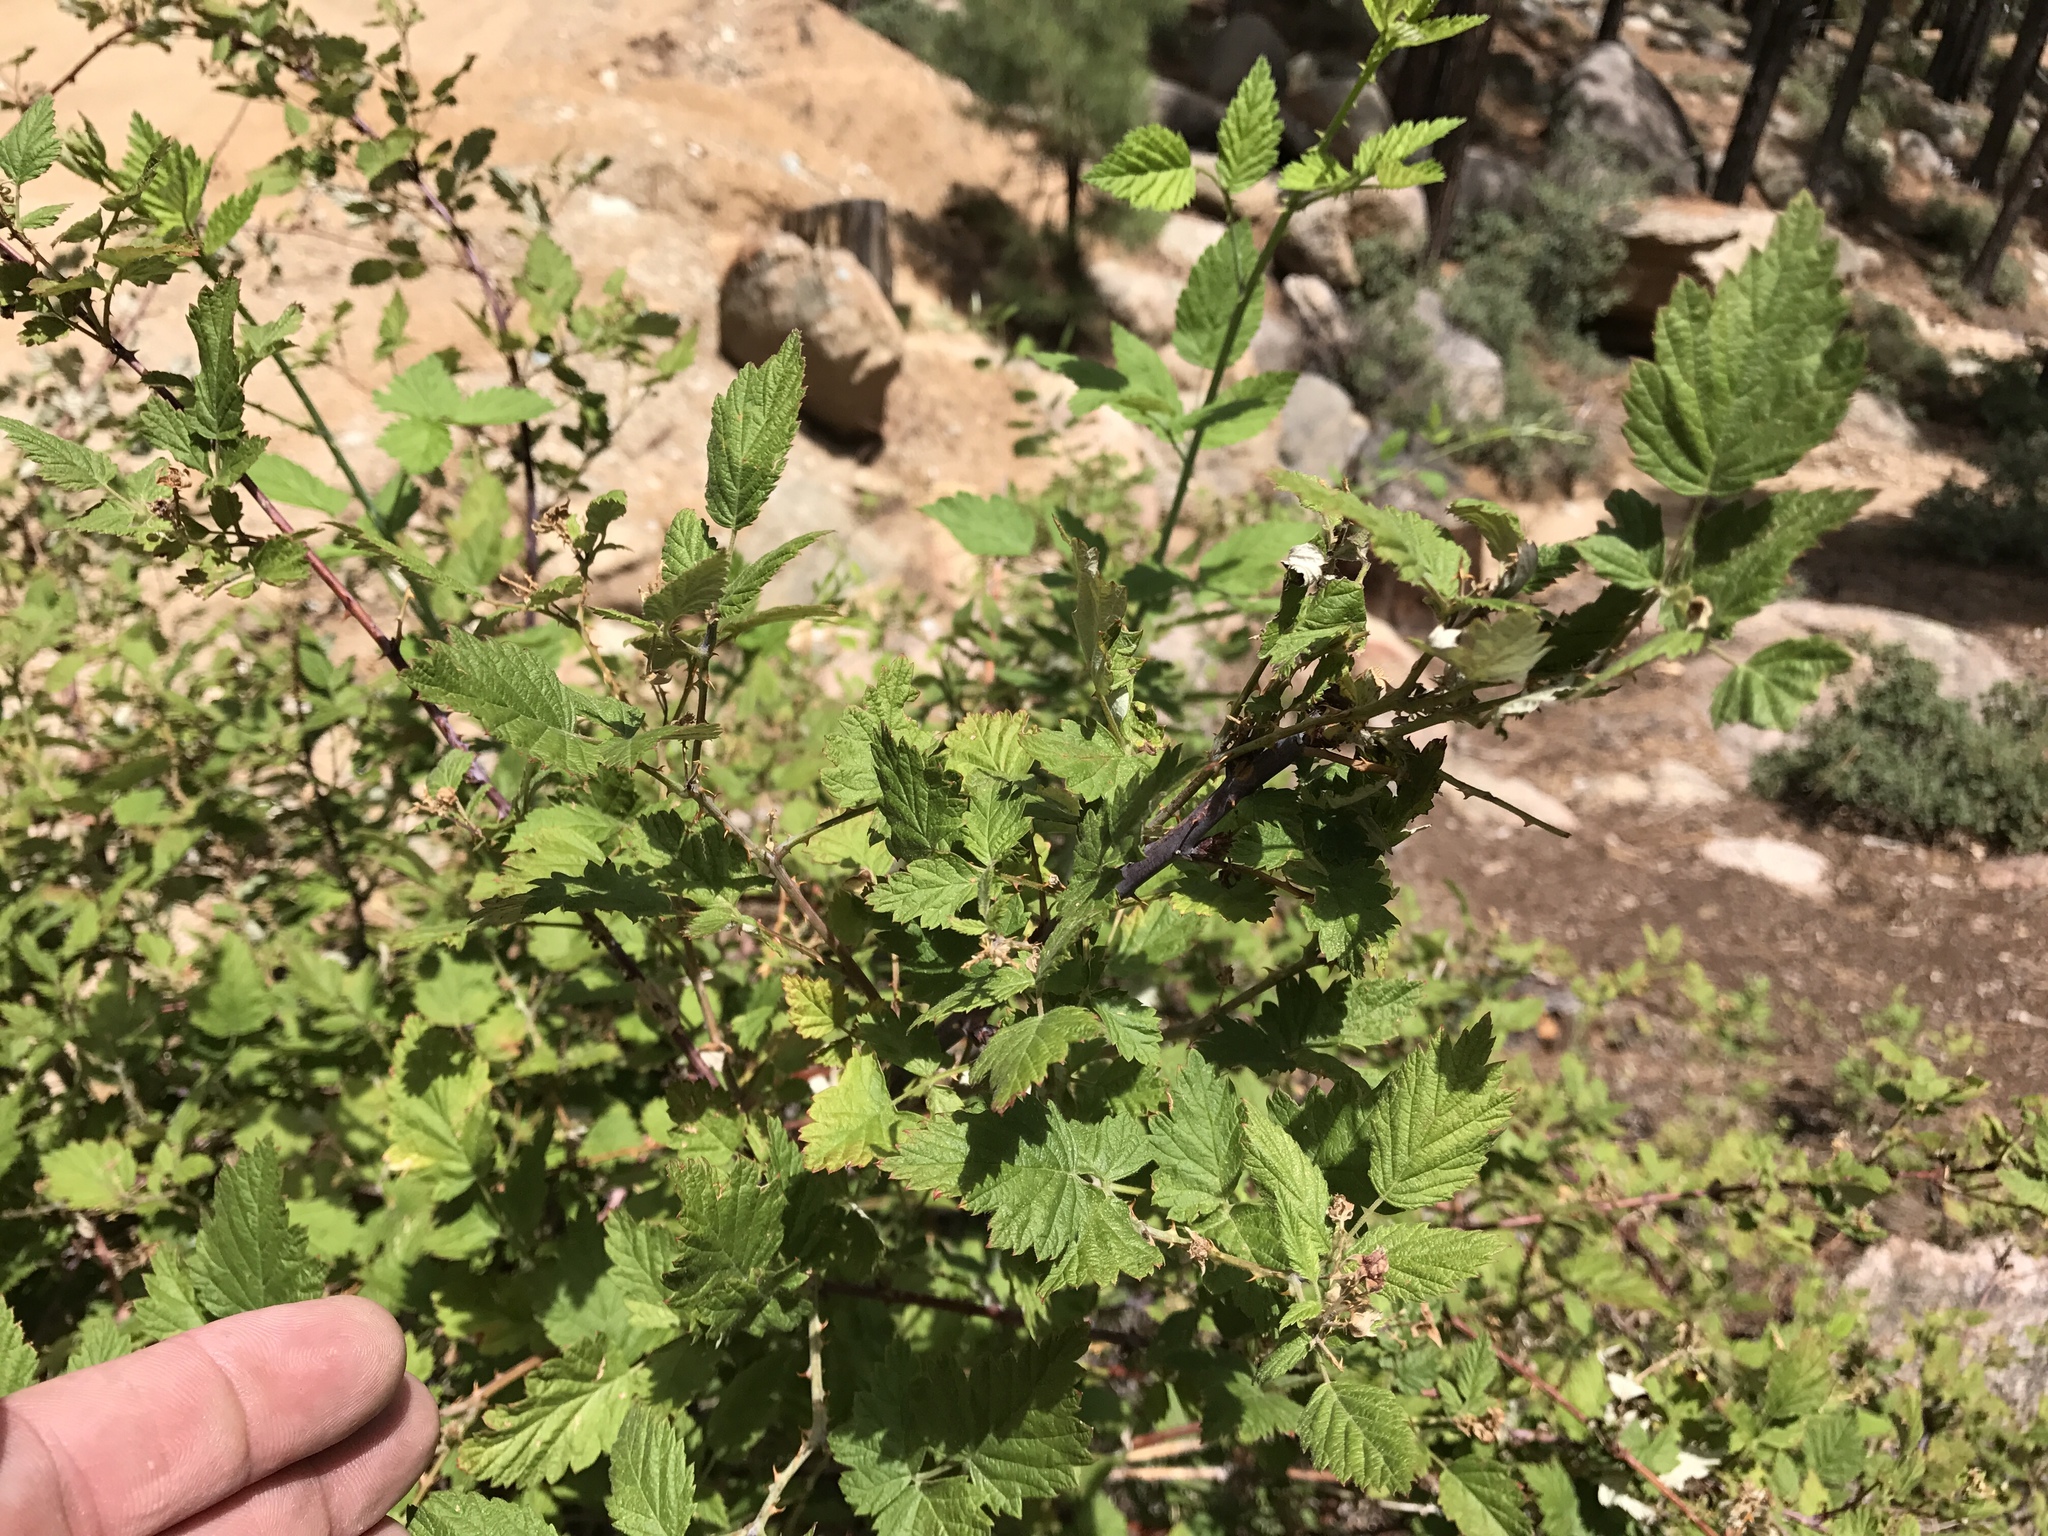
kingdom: Plantae
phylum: Tracheophyta
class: Magnoliopsida
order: Rosales
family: Rosaceae
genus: Rubus
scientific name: Rubus leucodermis
